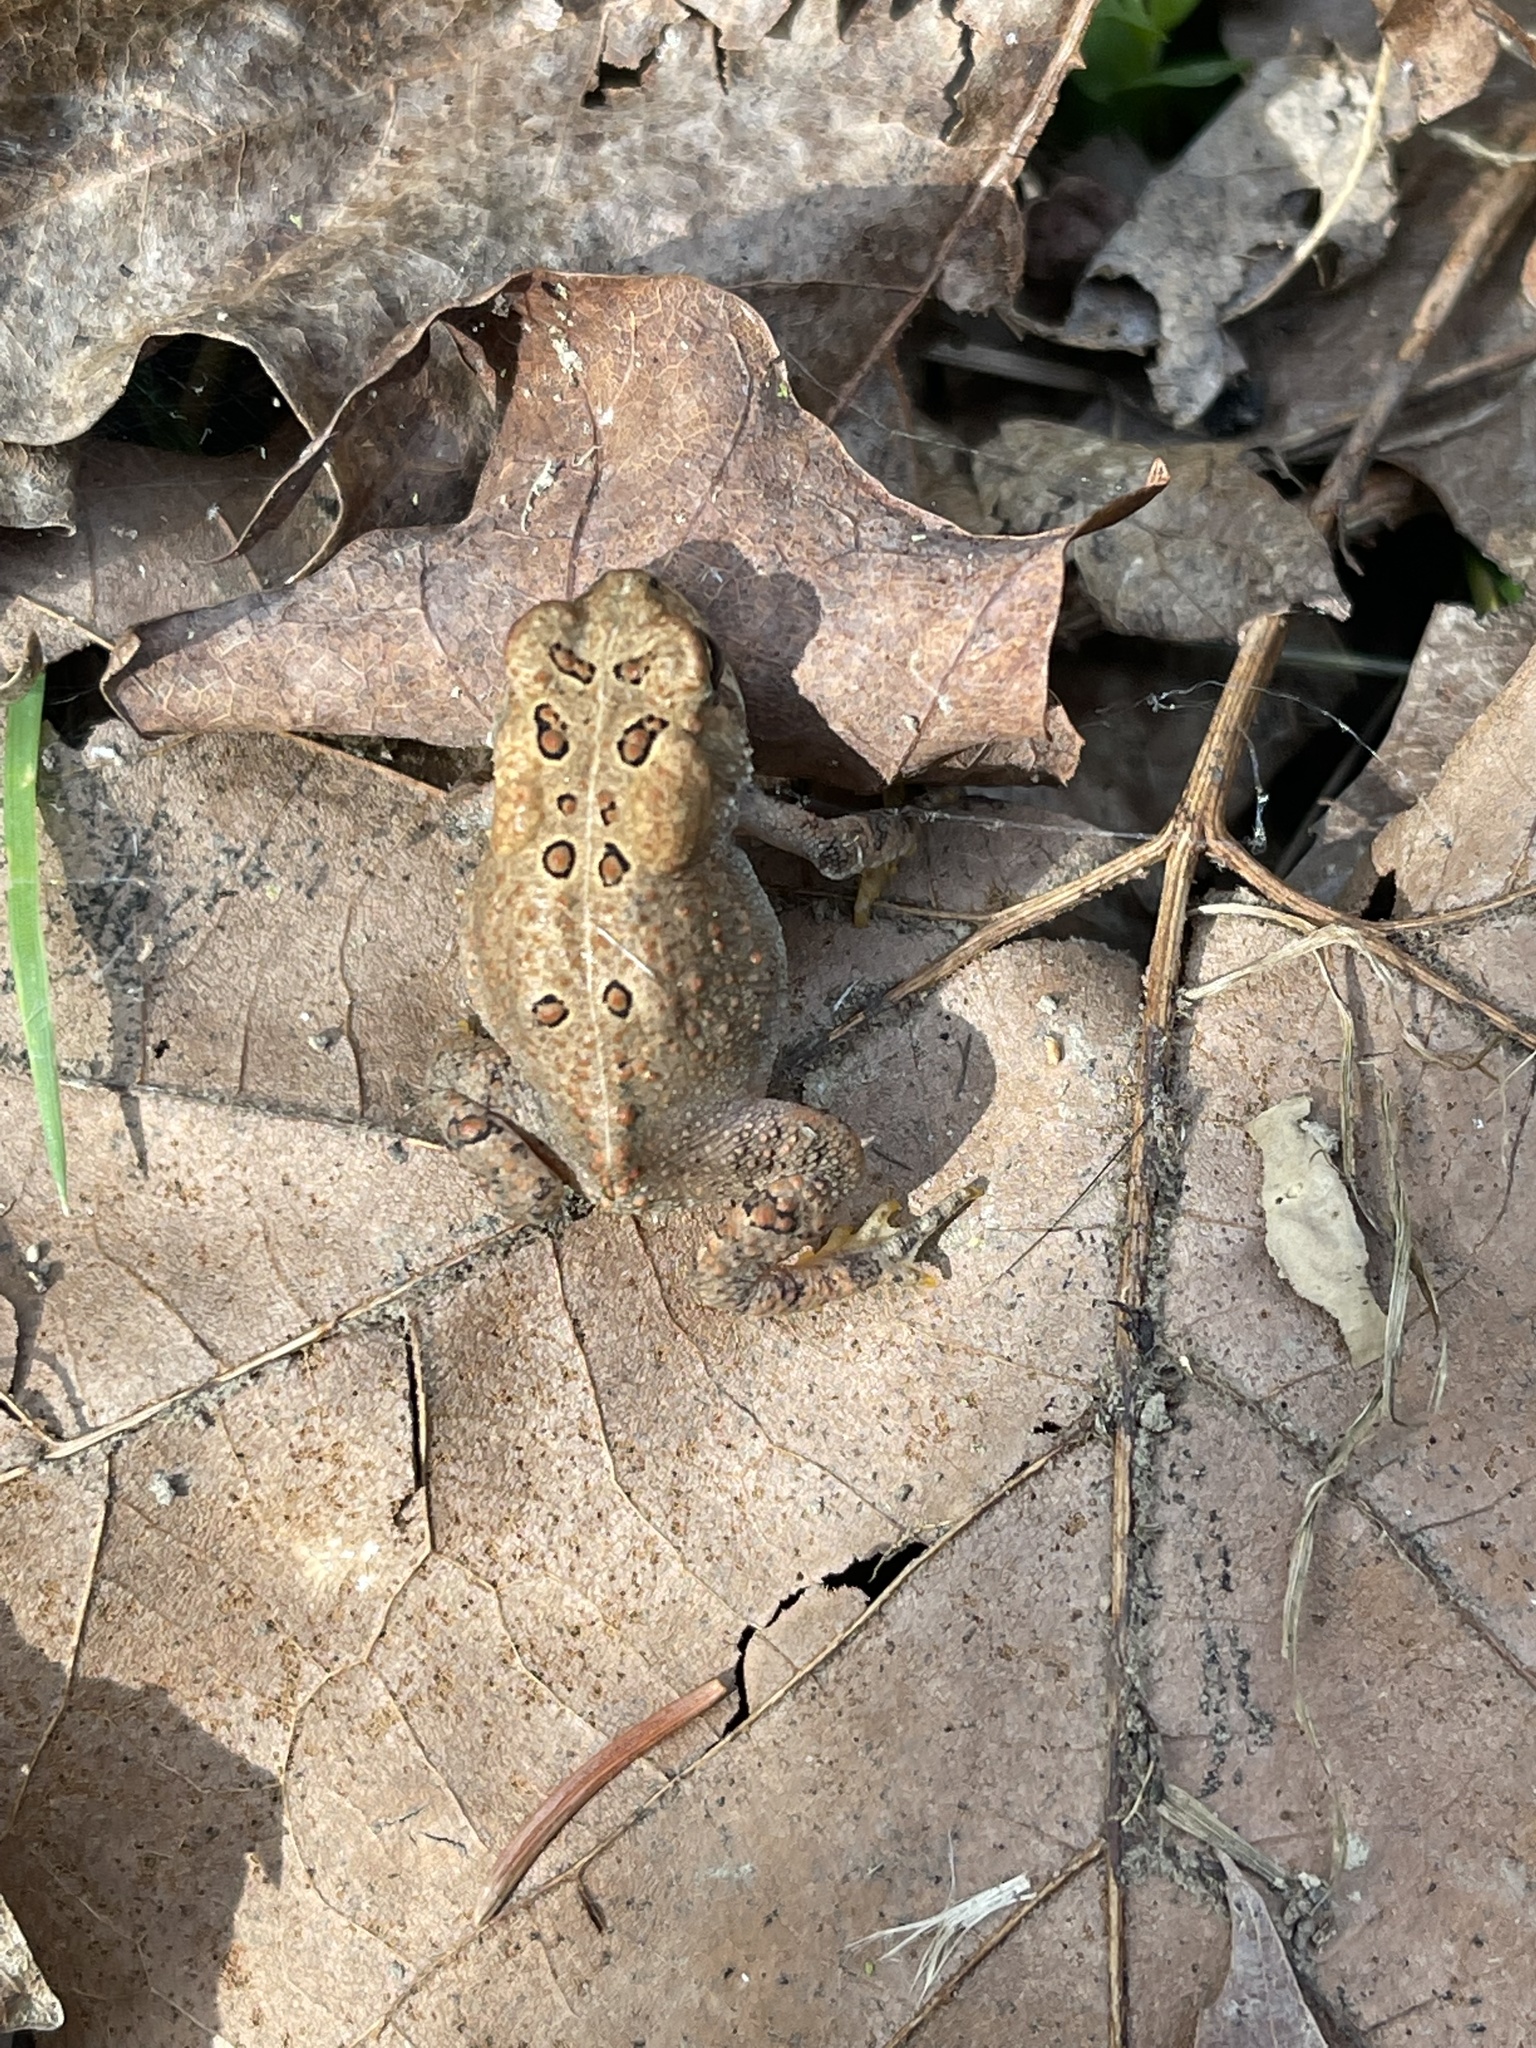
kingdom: Animalia
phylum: Chordata
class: Amphibia
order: Anura
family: Bufonidae
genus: Anaxyrus
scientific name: Anaxyrus americanus
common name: American toad
